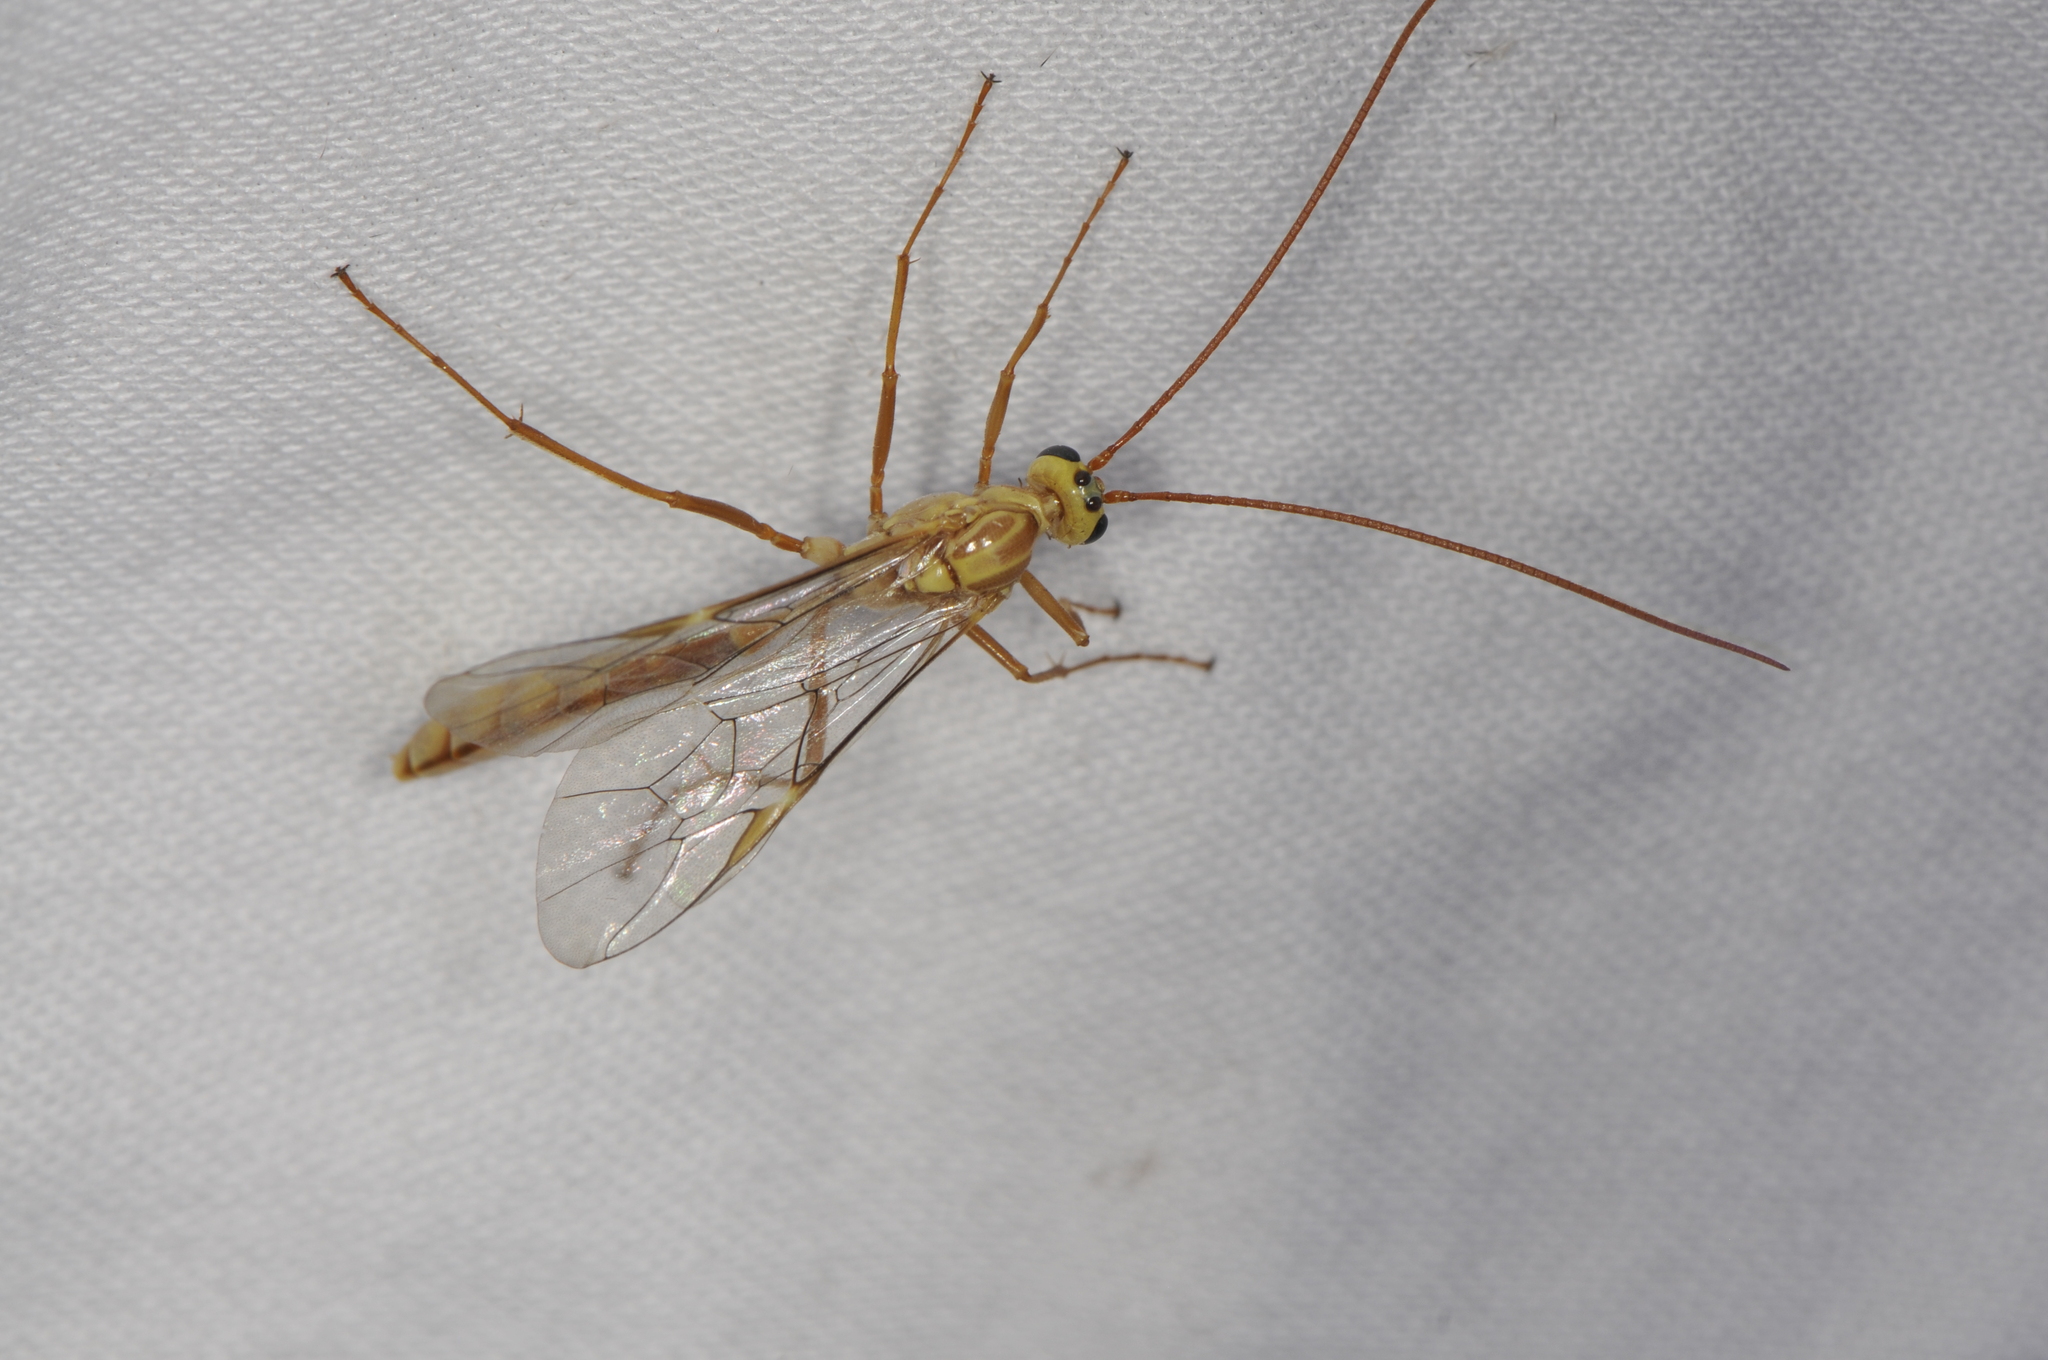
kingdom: Animalia
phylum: Arthropoda
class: Insecta
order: Hymenoptera
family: Ichneumonidae
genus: Eremotylus
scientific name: Eremotylus
